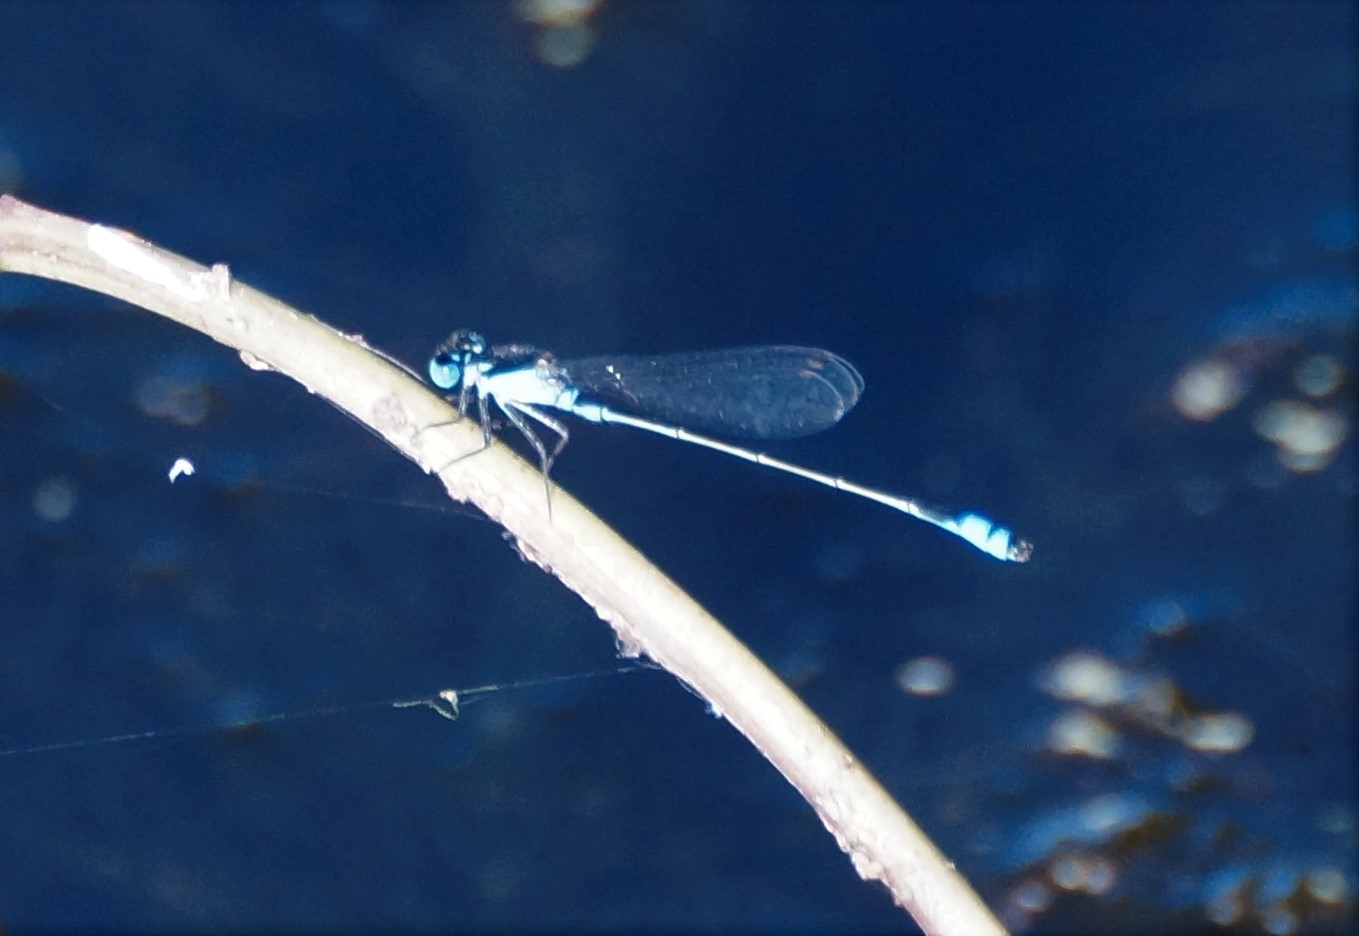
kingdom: Animalia
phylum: Arthropoda
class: Insecta
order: Odonata
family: Coenagrionidae
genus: Ischnura
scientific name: Ischnura heterosticta
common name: Common bluetail
